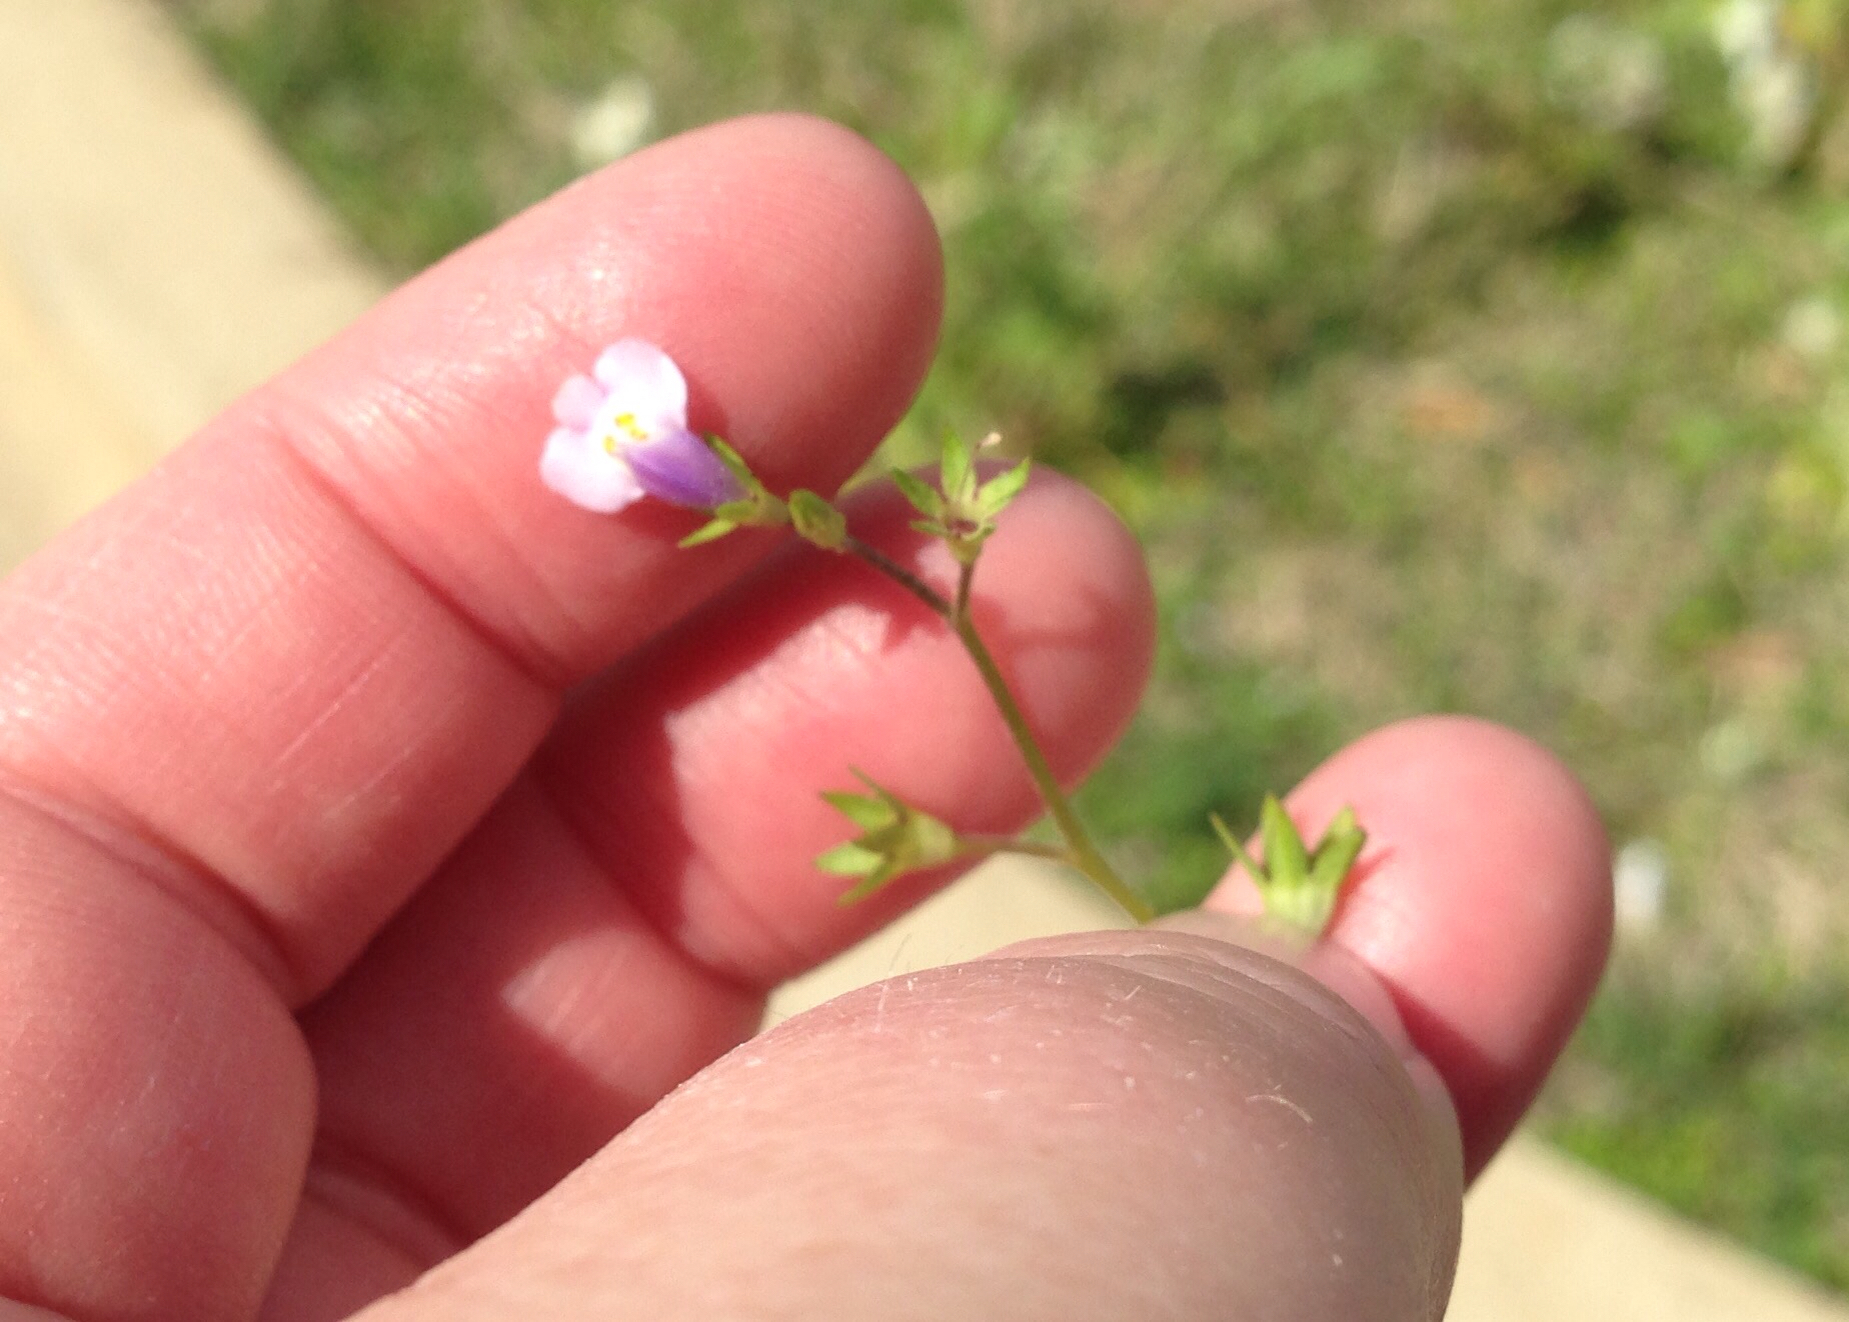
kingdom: Plantae
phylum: Tracheophyta
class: Magnoliopsida
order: Lamiales
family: Mazaceae
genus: Mazus
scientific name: Mazus pumilus
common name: Japanese mazus
